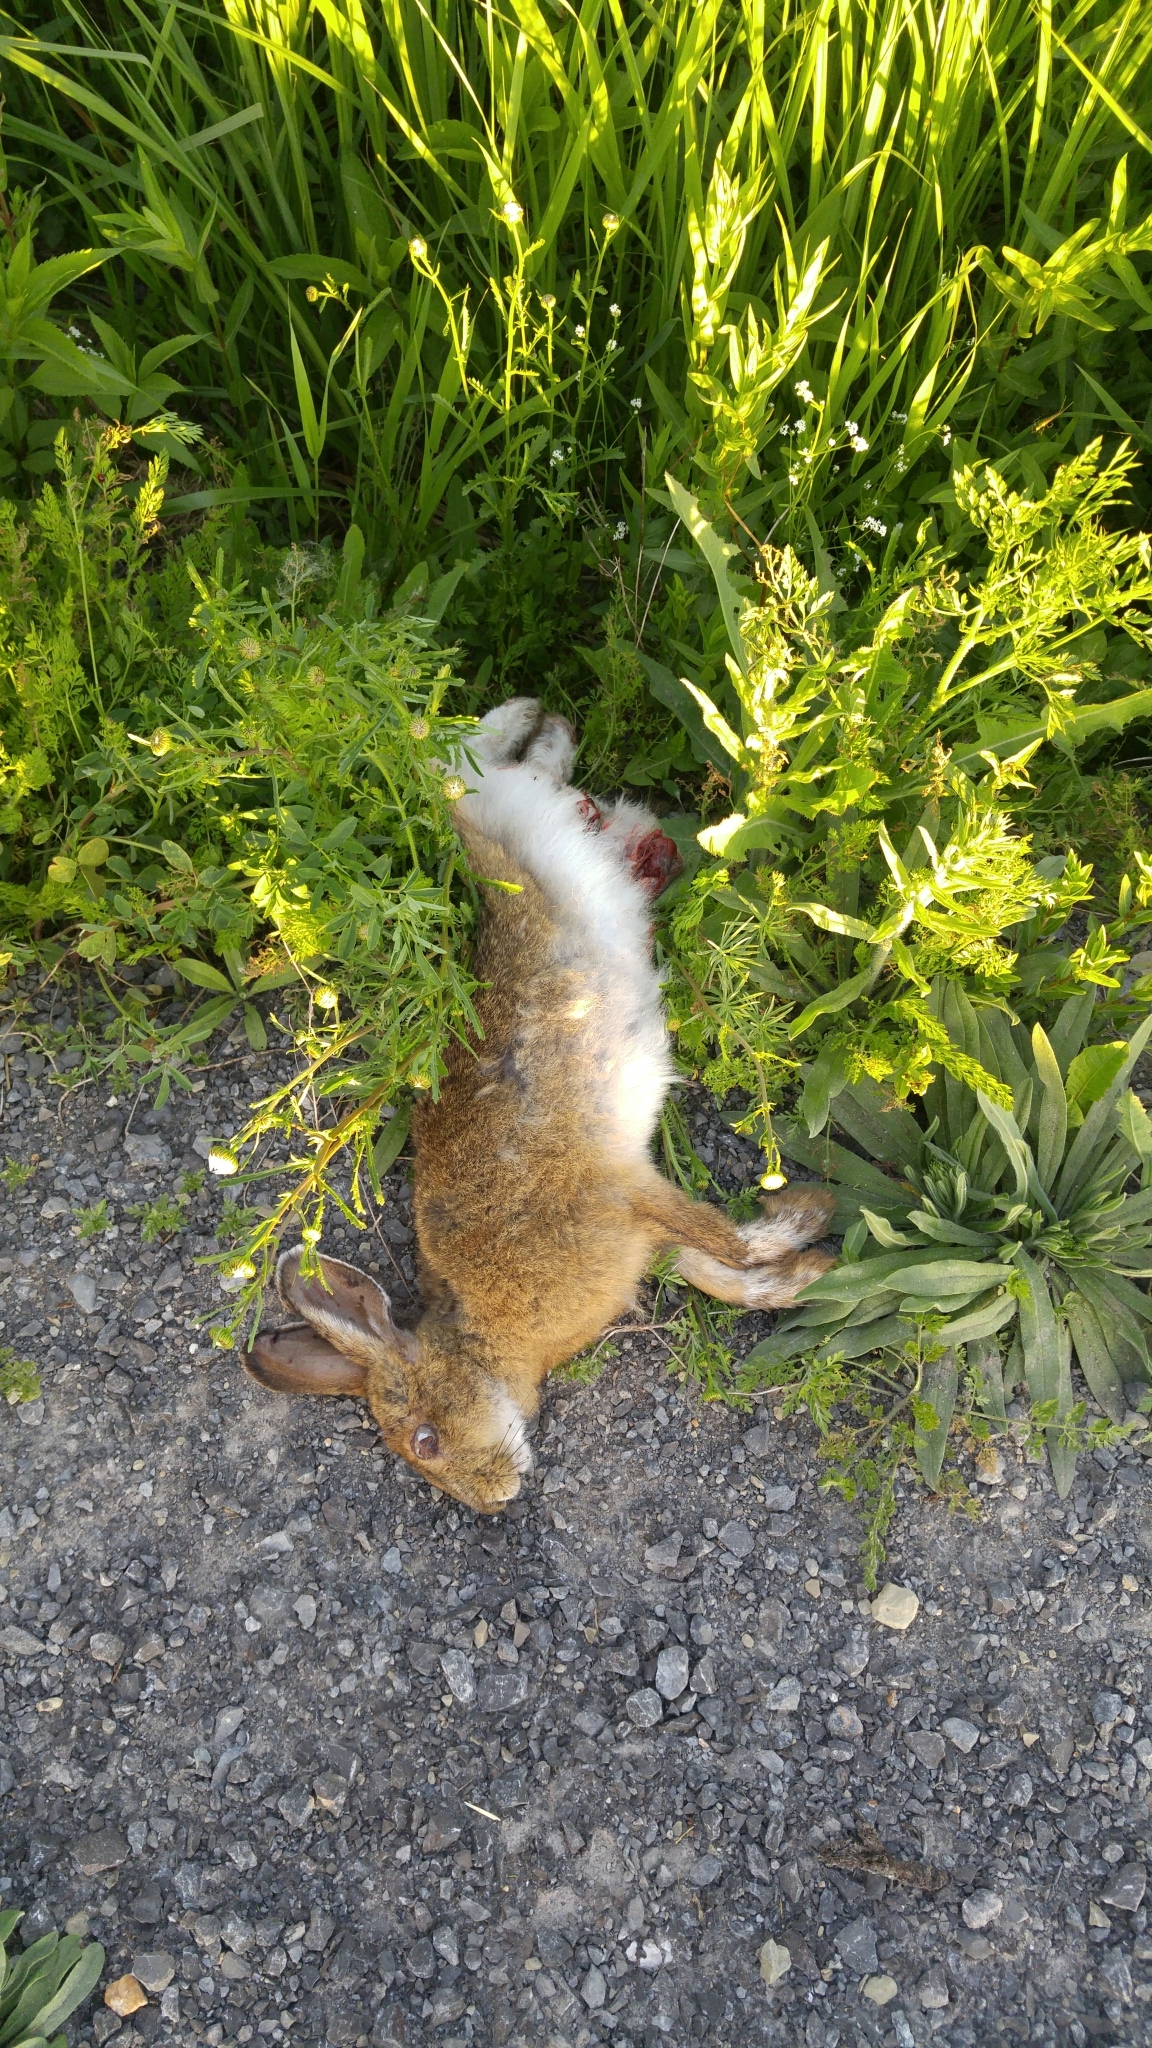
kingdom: Animalia
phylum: Chordata
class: Mammalia
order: Lagomorpha
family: Leporidae
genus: Lepus
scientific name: Lepus americanus
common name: Snowshoe hare
